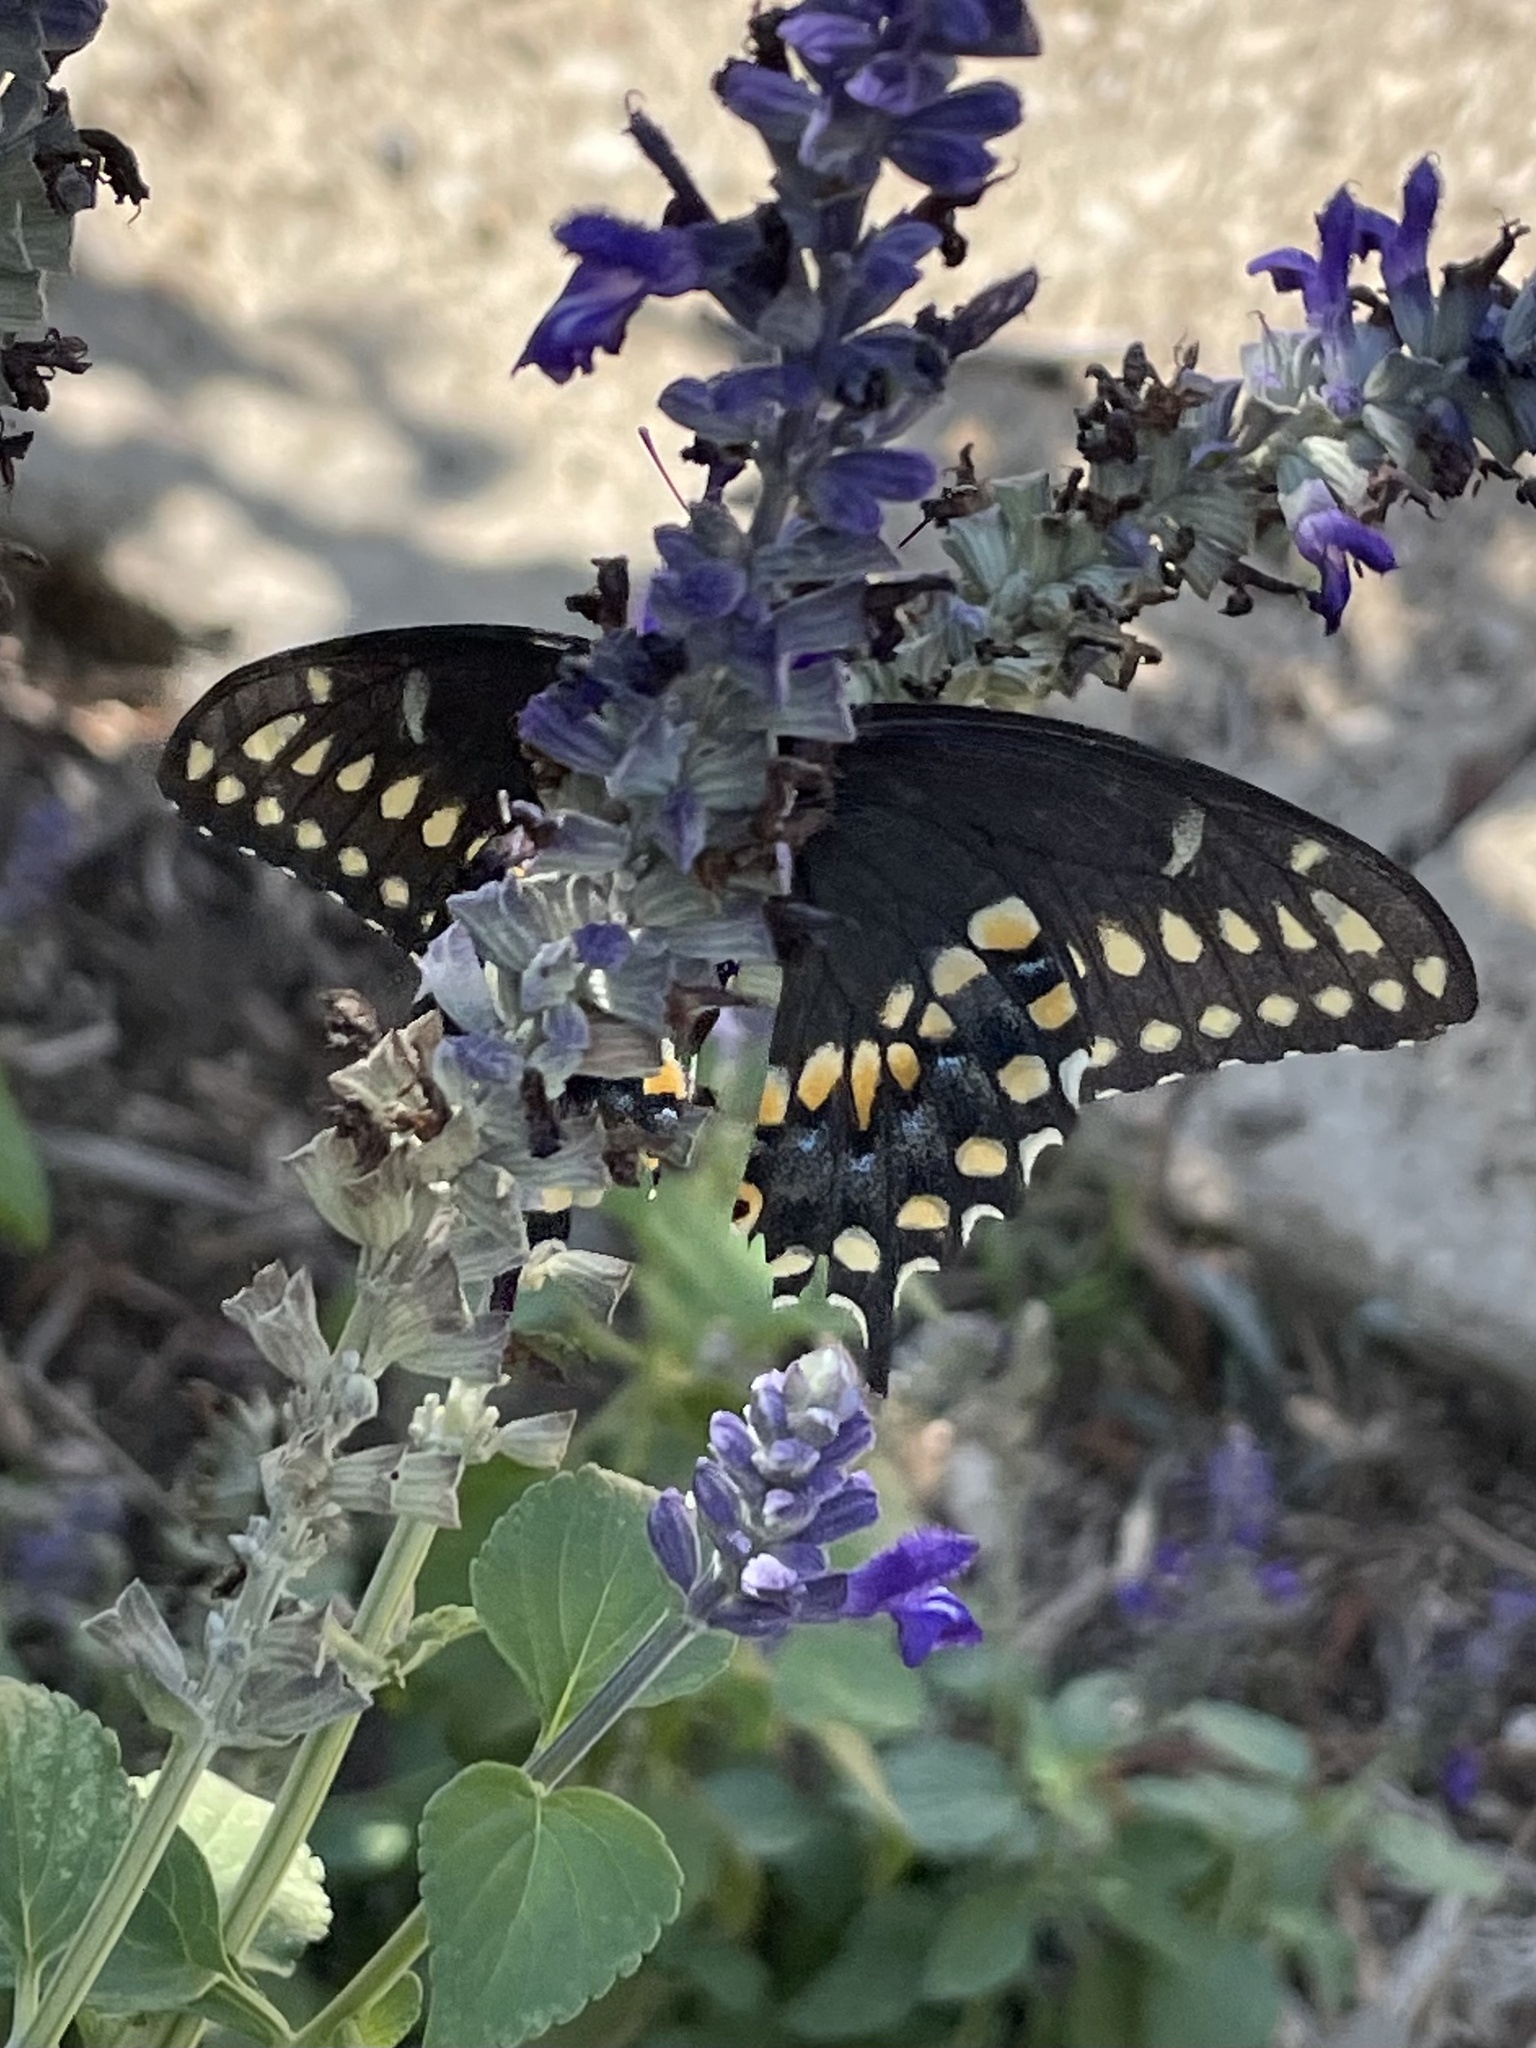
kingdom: Animalia
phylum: Arthropoda
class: Insecta
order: Lepidoptera
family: Papilionidae
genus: Papilio
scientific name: Papilio polyxenes
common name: Black swallowtail
